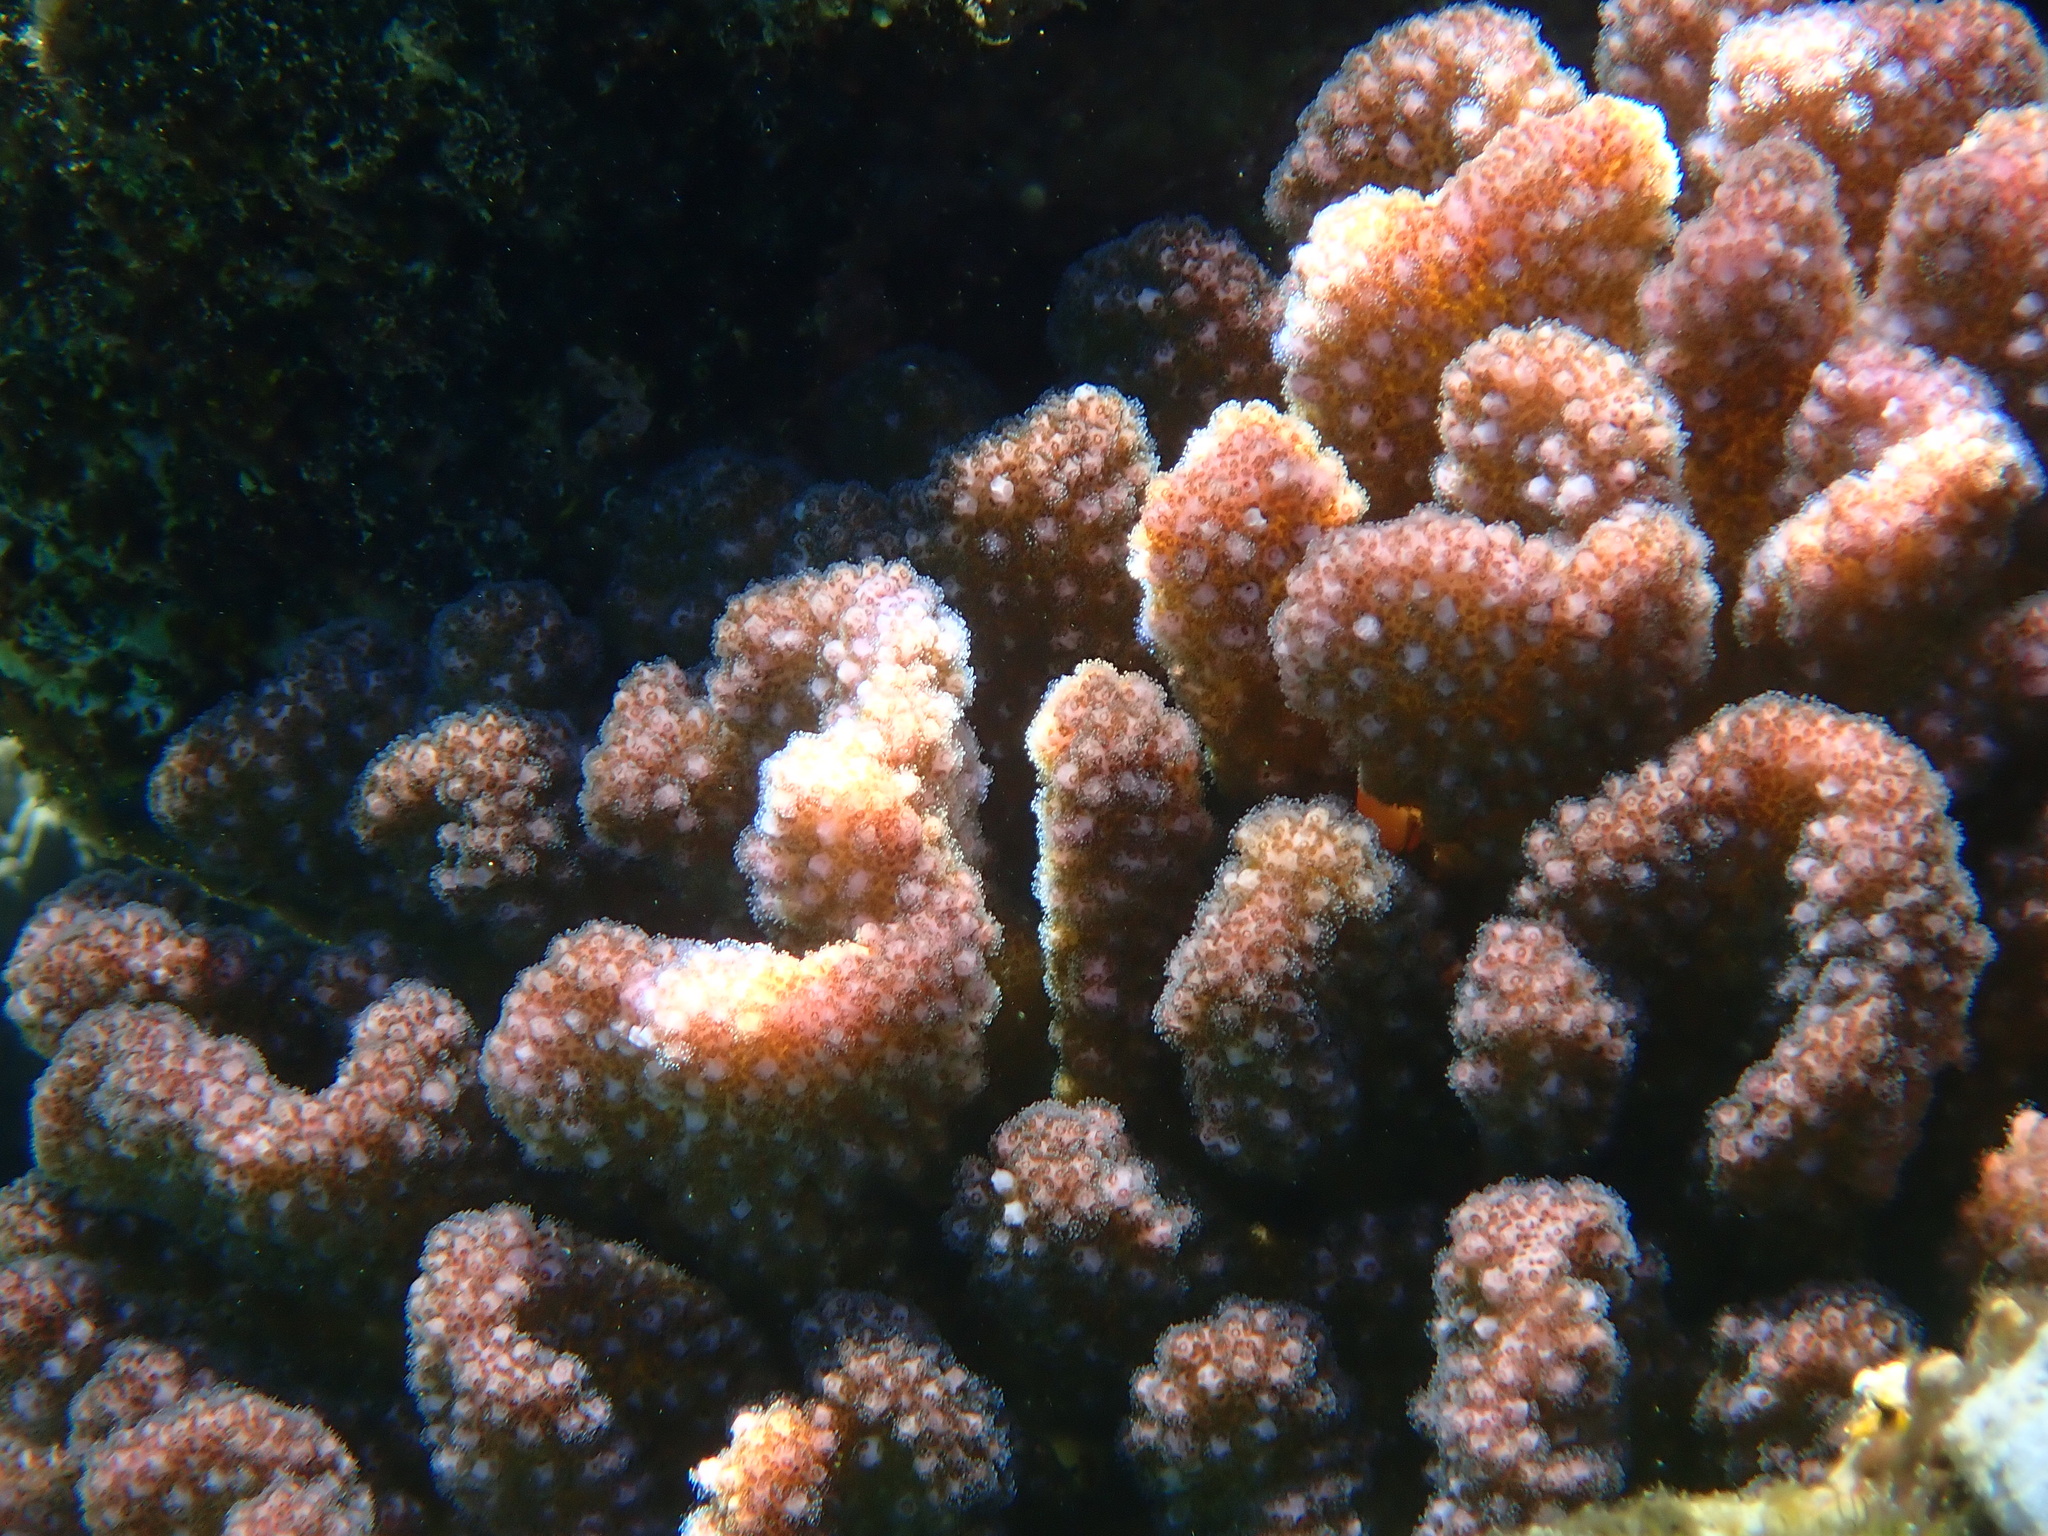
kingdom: Animalia
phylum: Cnidaria
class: Anthozoa
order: Scleractinia
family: Pocilloporidae
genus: Pocillopora
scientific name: Pocillopora verrucosa
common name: Cauliflower coral
